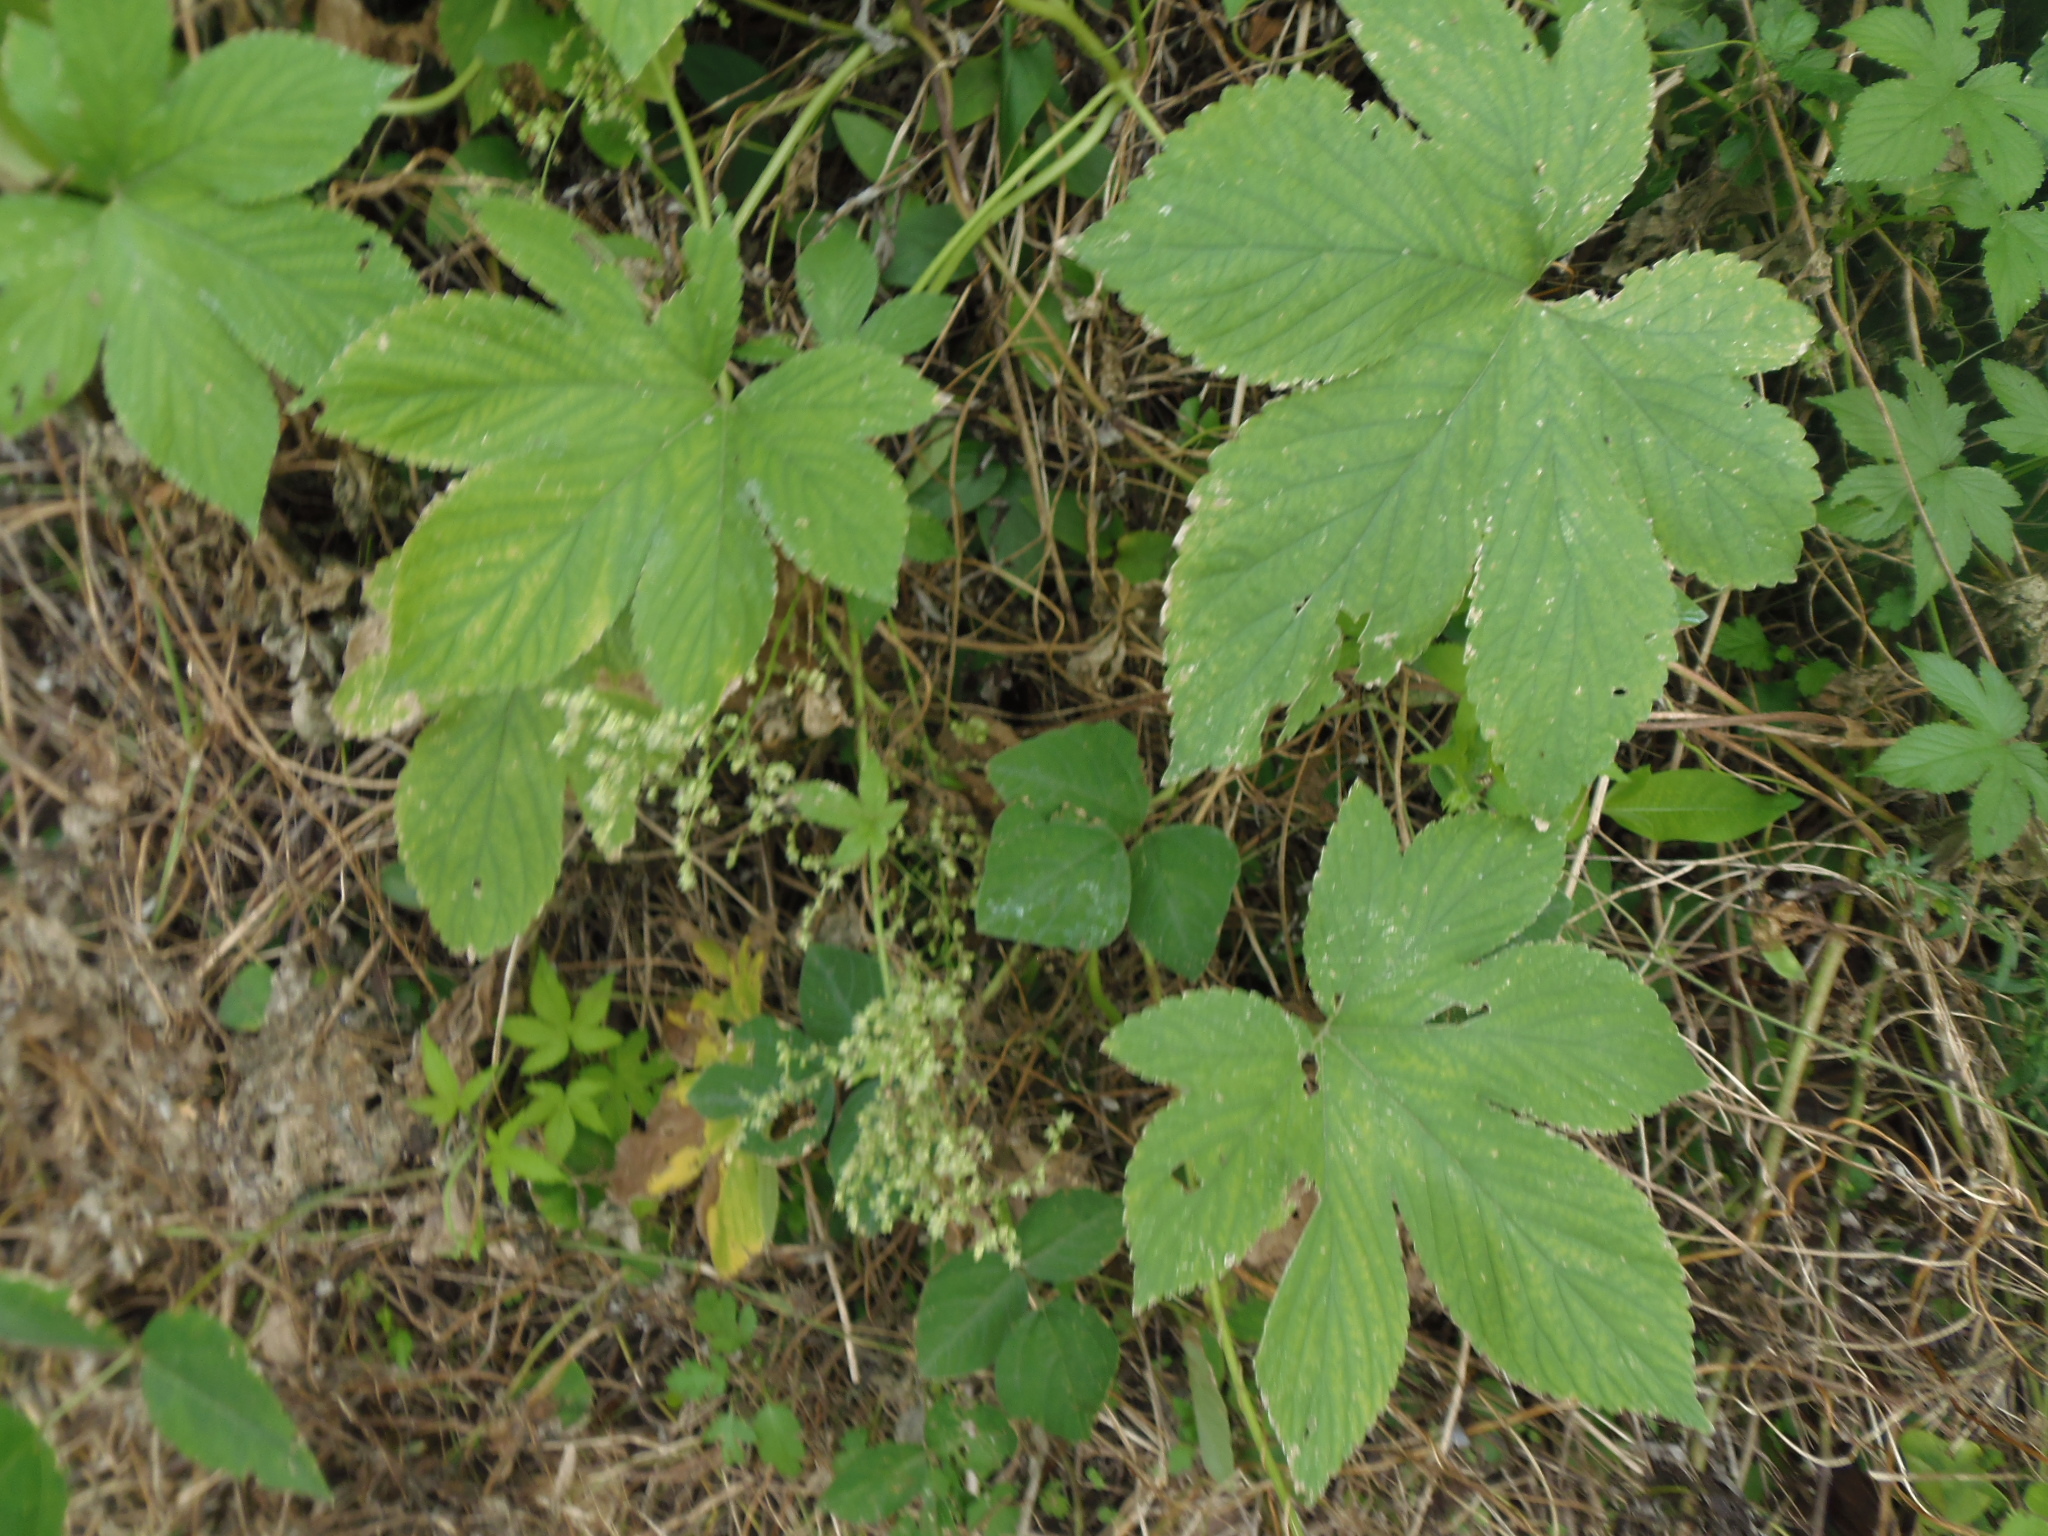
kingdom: Plantae
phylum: Tracheophyta
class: Magnoliopsida
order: Rosales
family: Cannabaceae
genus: Humulus
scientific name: Humulus scandens
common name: Japanese hop
